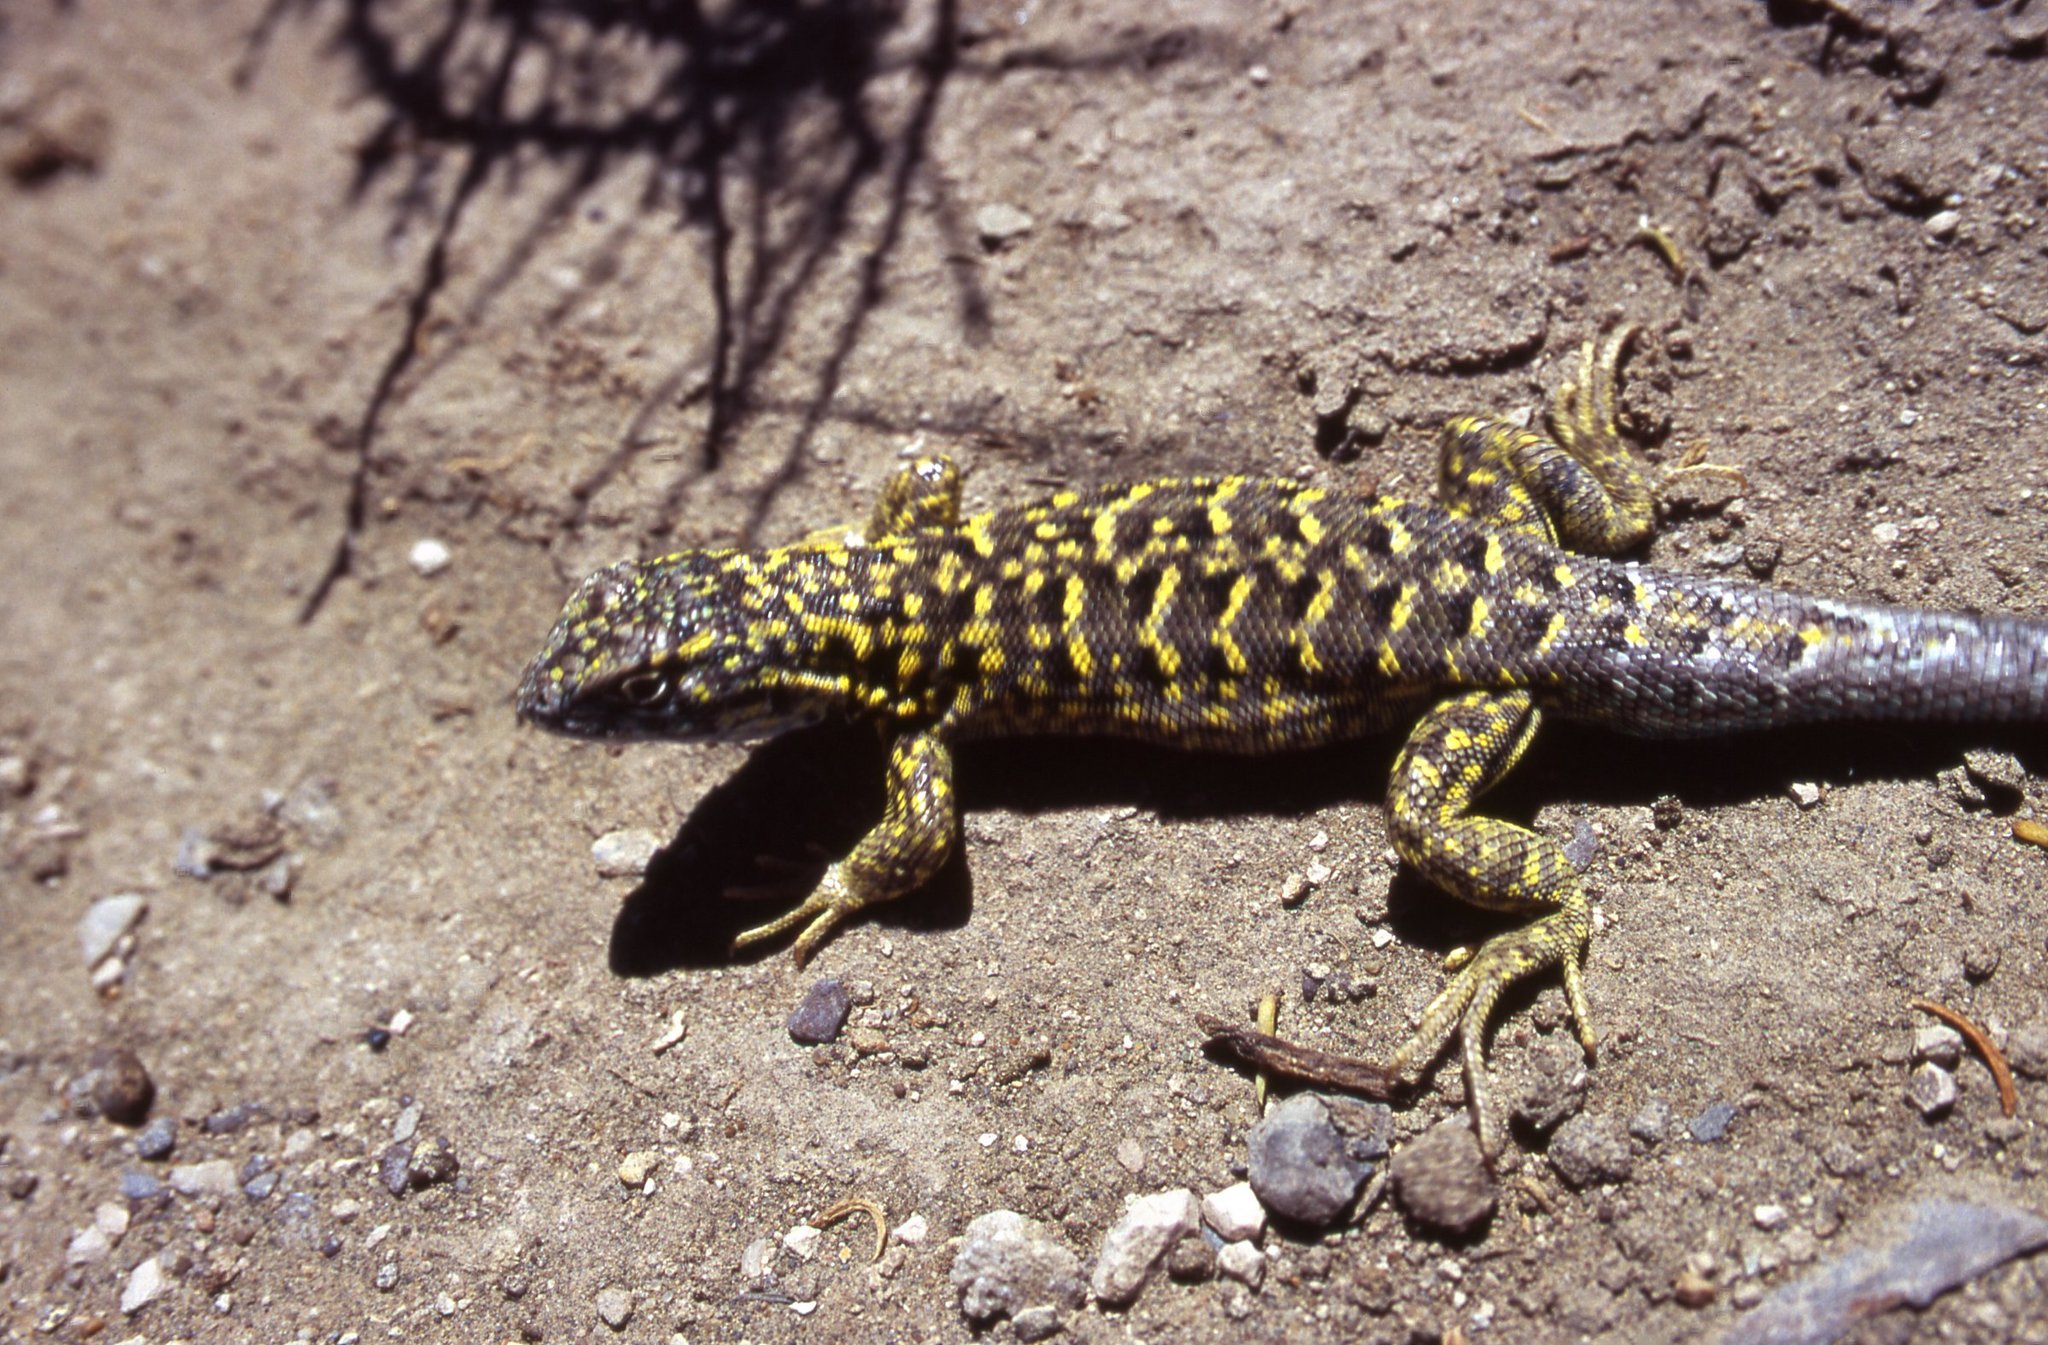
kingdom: Animalia
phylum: Chordata
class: Squamata
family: Liolaemidae
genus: Liolaemus
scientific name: Liolaemus melanops
